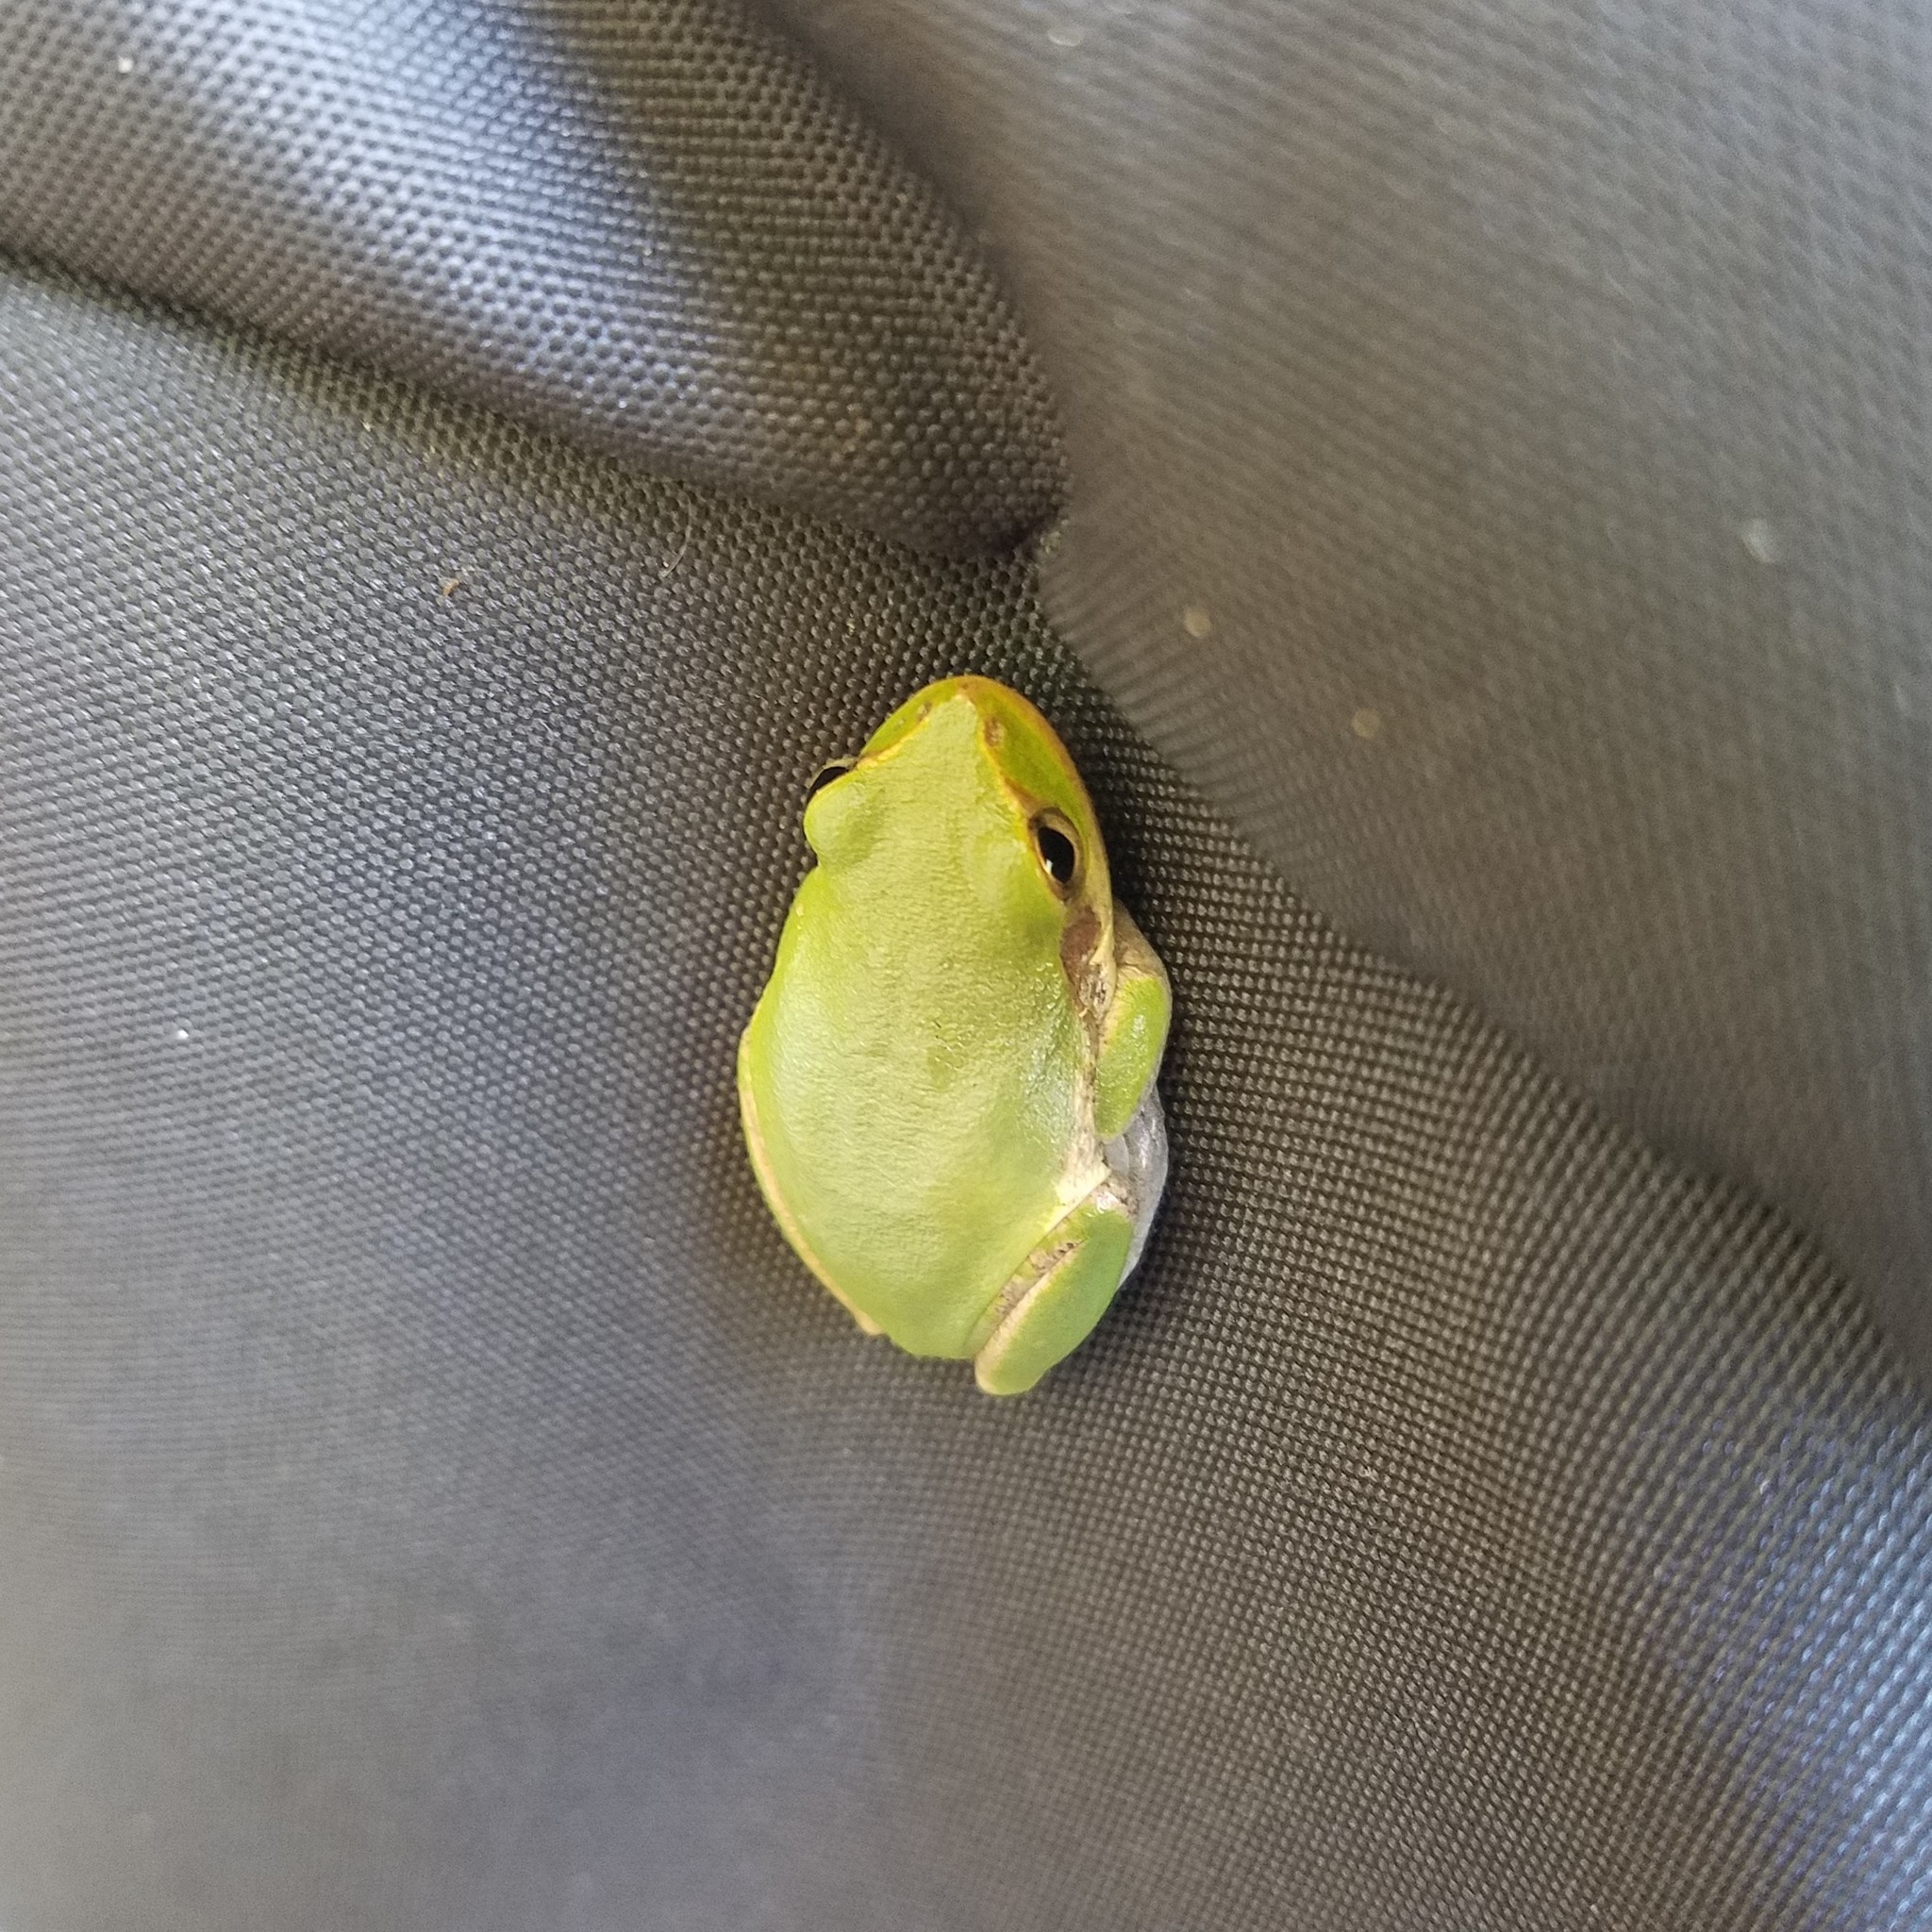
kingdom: Animalia
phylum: Chordata
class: Amphibia
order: Anura
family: Hylidae
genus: Dryophytes
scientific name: Dryophytes squirellus
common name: Squirrel treefrog
